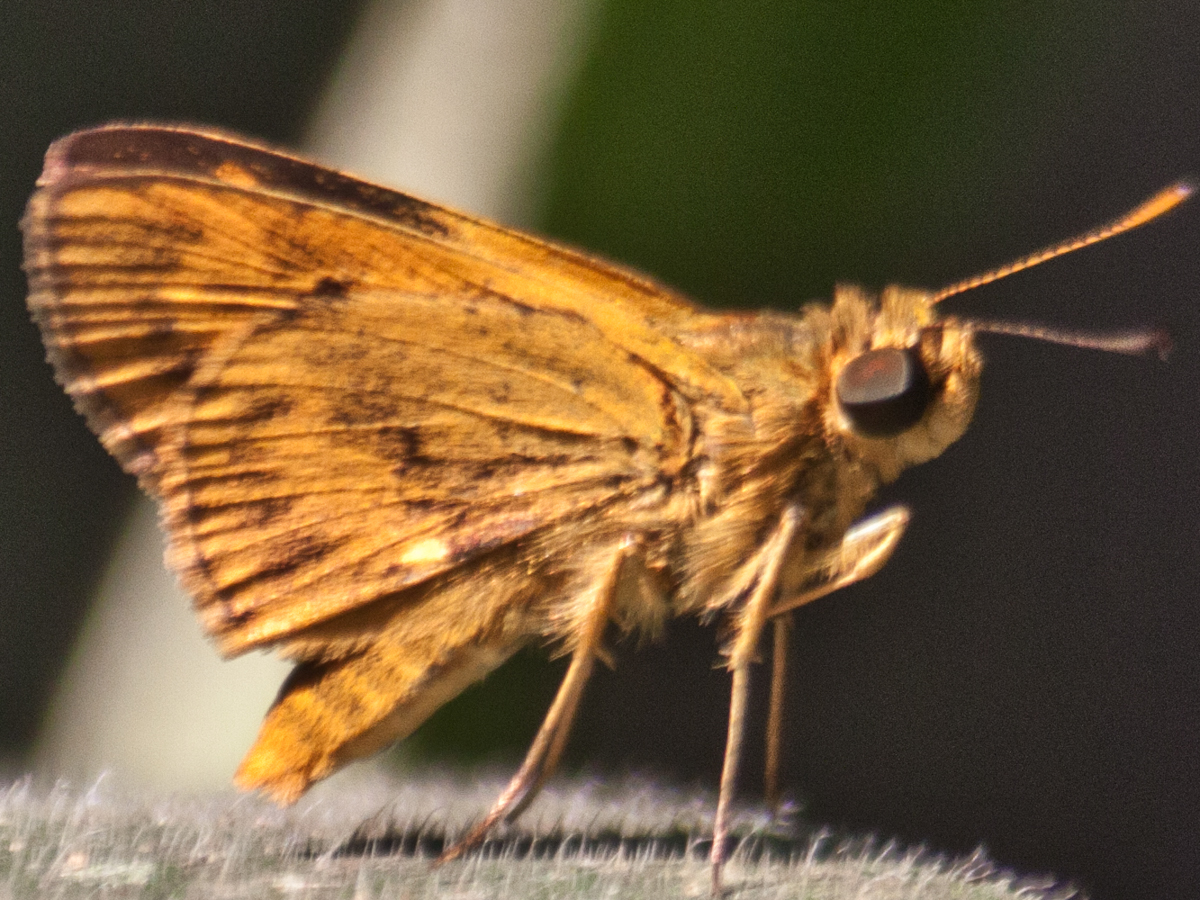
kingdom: Animalia
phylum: Arthropoda
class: Insecta
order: Lepidoptera
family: Hesperiidae
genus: Oriens
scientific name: Oriens gola
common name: Common dartlet
